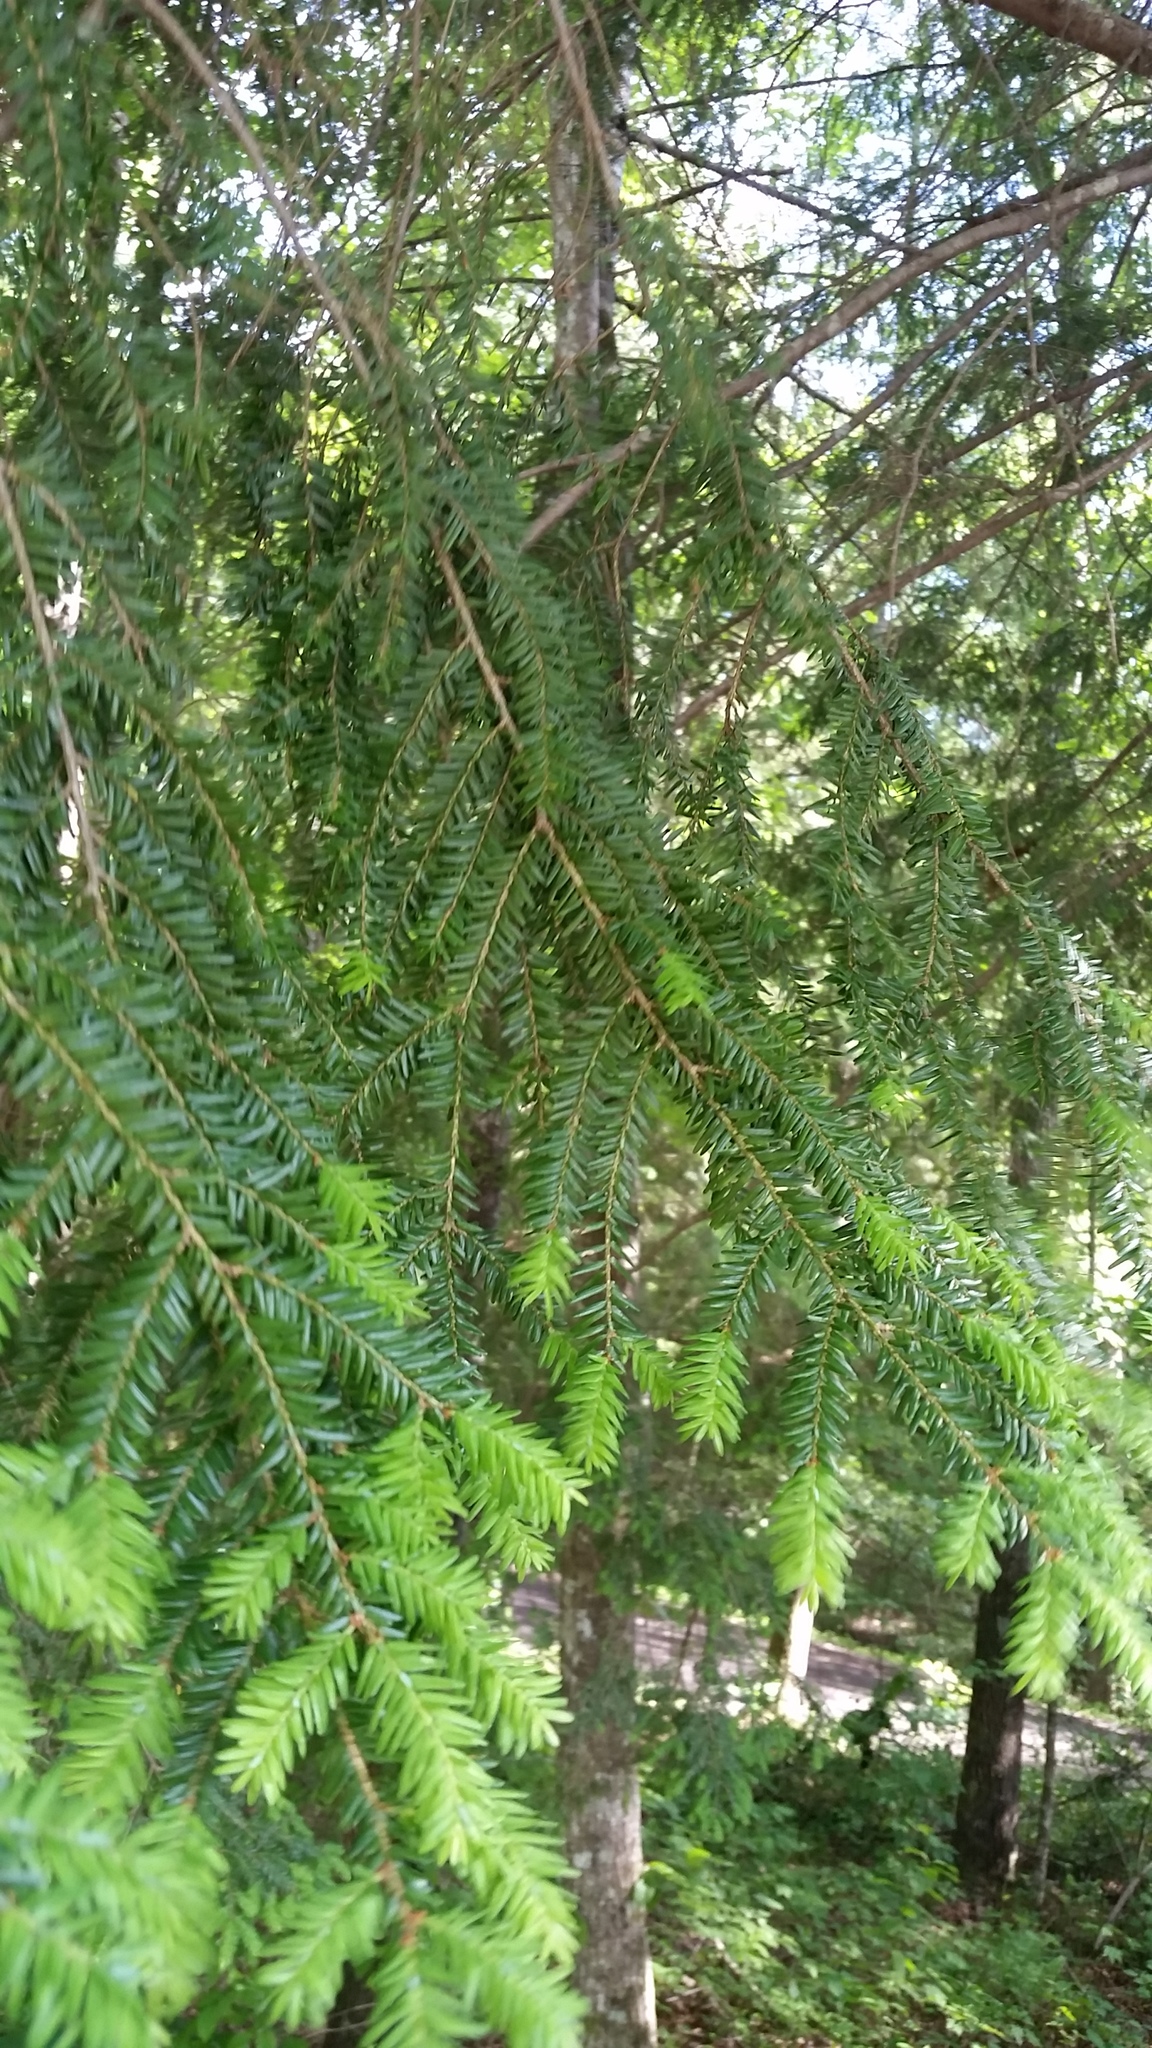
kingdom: Plantae
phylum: Tracheophyta
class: Pinopsida
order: Pinales
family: Pinaceae
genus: Tsuga
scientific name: Tsuga canadensis
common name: Eastern hemlock
